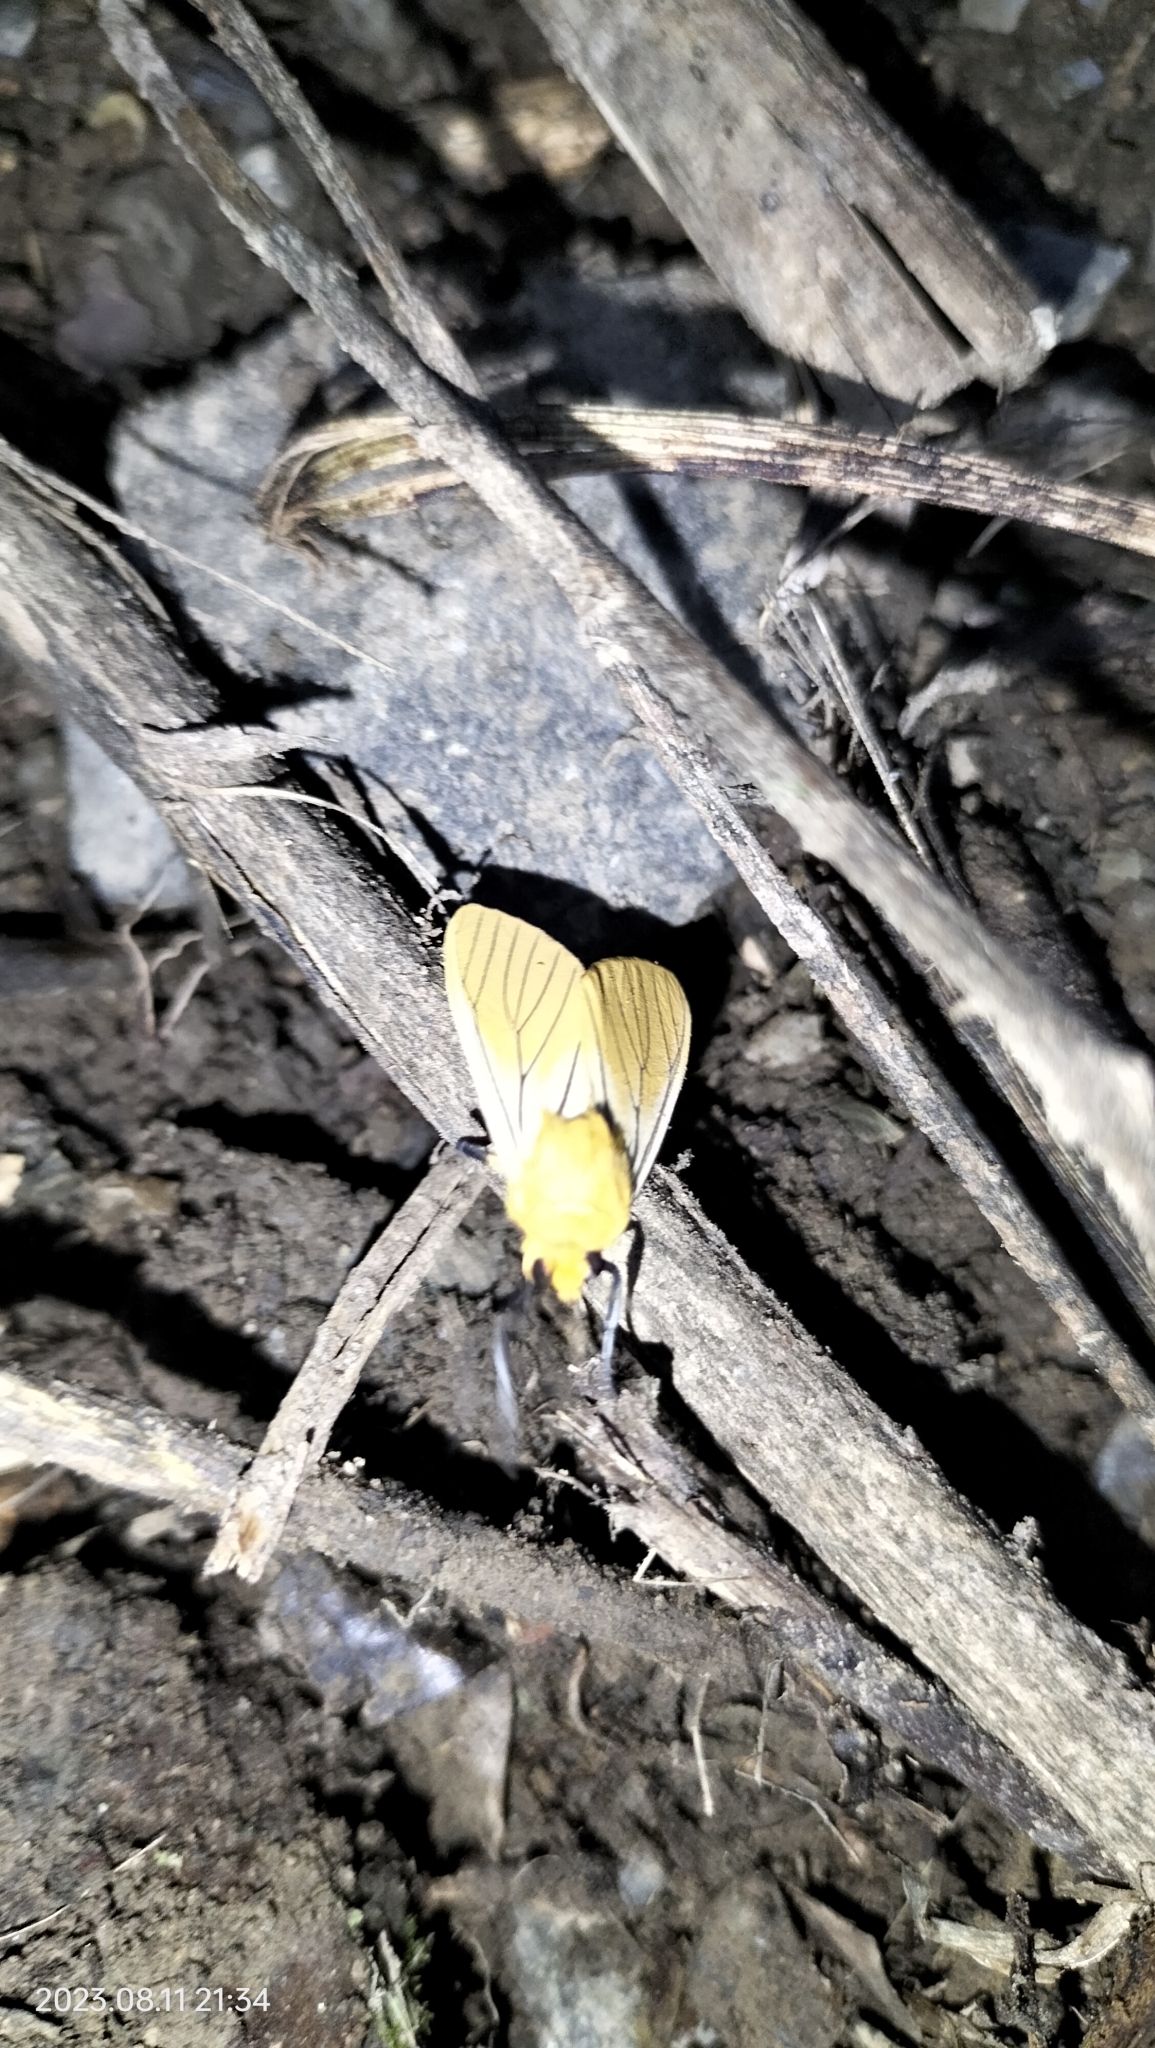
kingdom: Animalia
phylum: Arthropoda
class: Insecta
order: Lepidoptera
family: Erebidae
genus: Pseudischnocampa
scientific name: Pseudischnocampa
